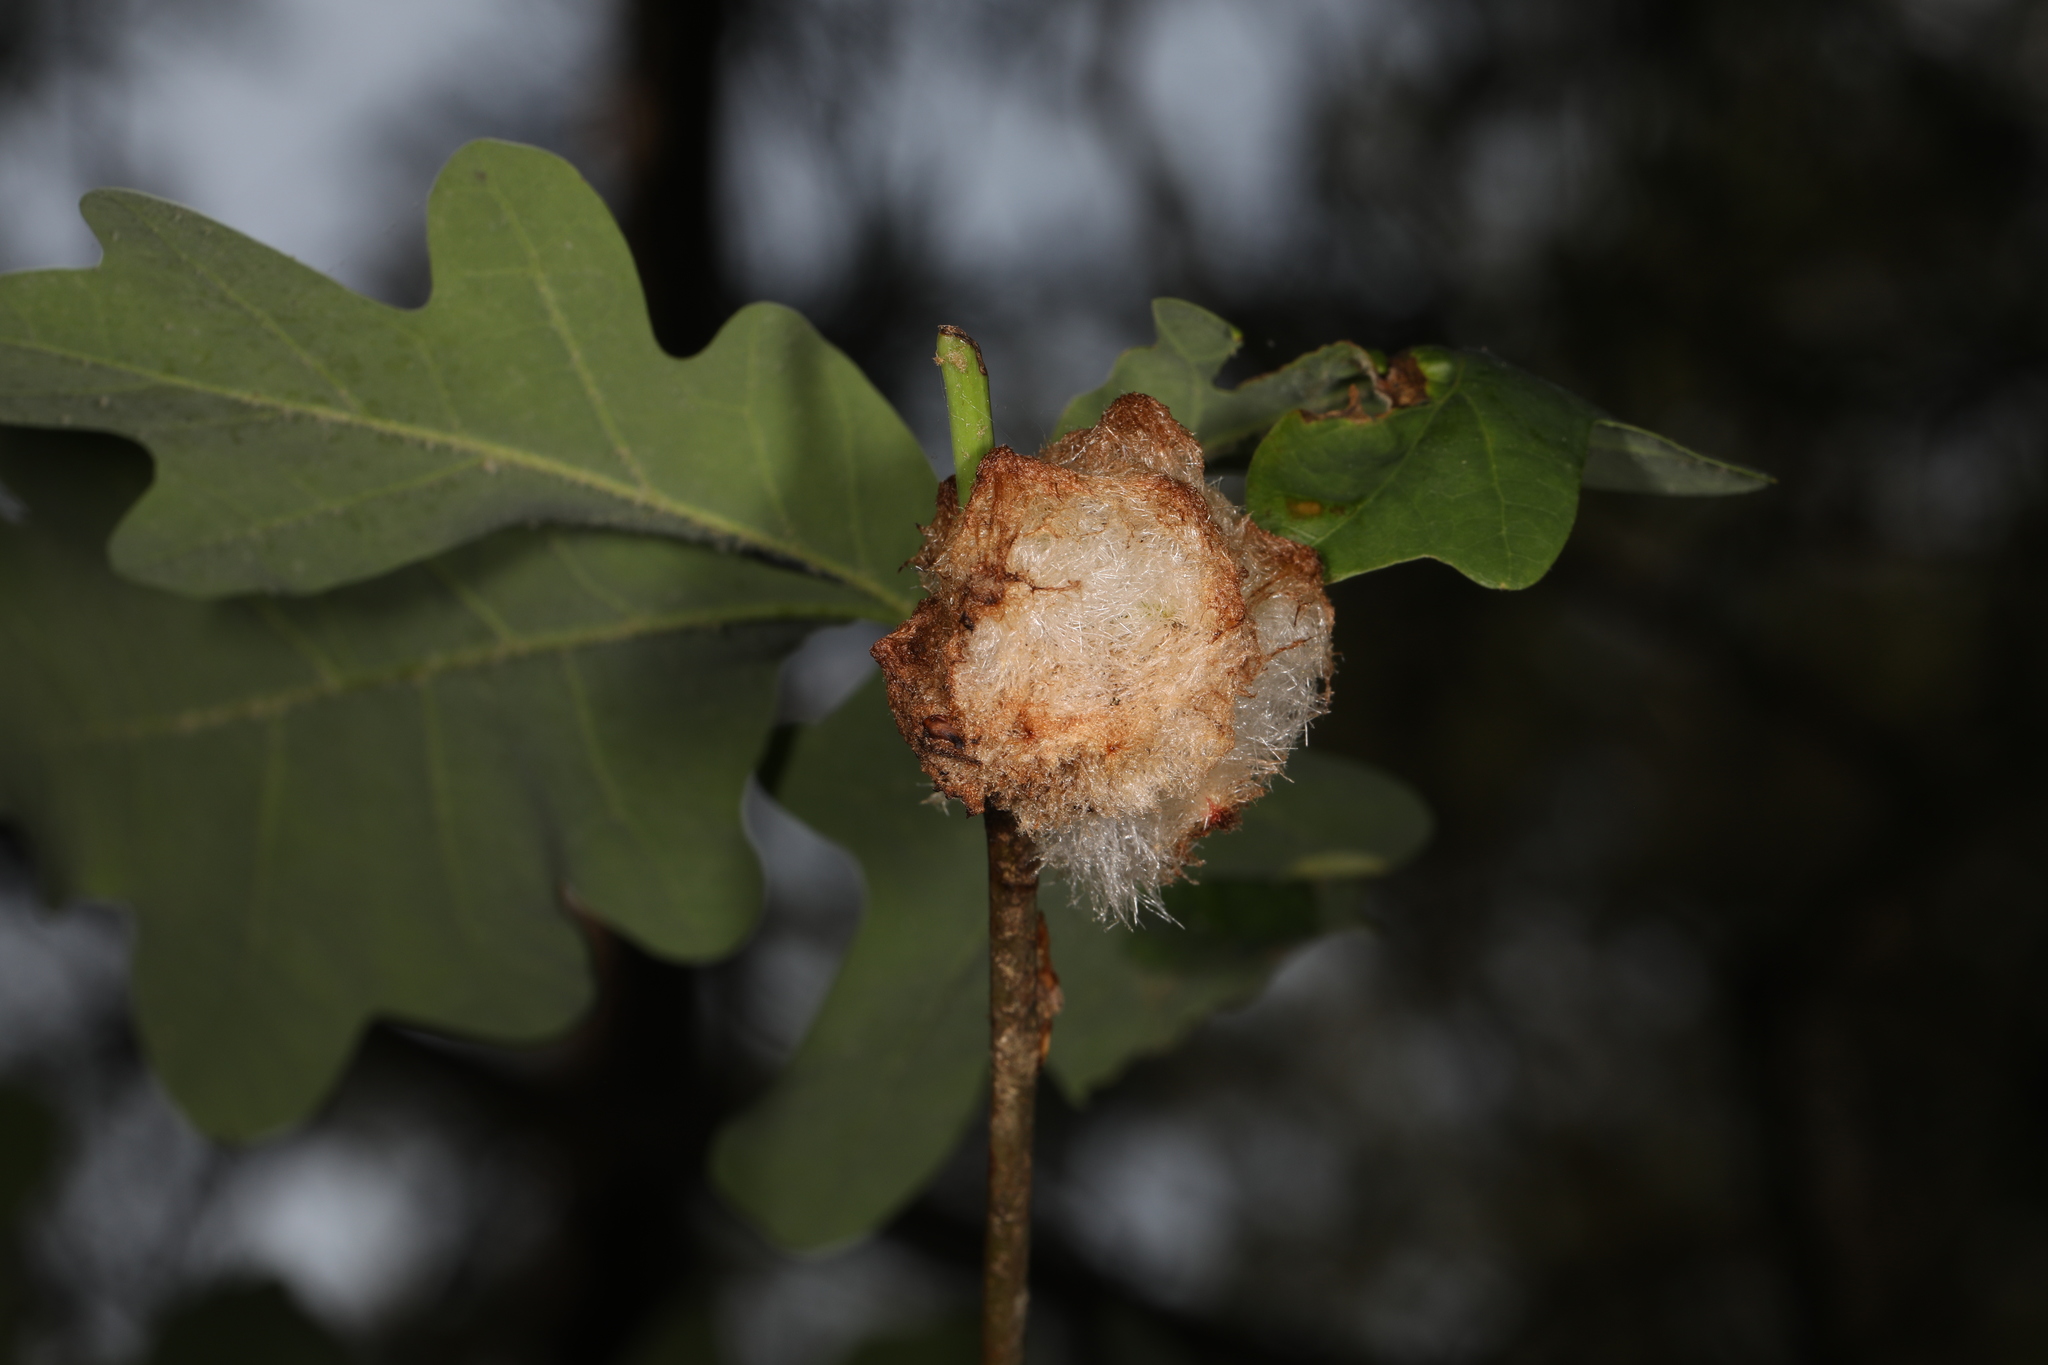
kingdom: Animalia
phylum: Arthropoda
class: Insecta
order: Hymenoptera
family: Cynipidae
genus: Callirhytis
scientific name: Callirhytis
